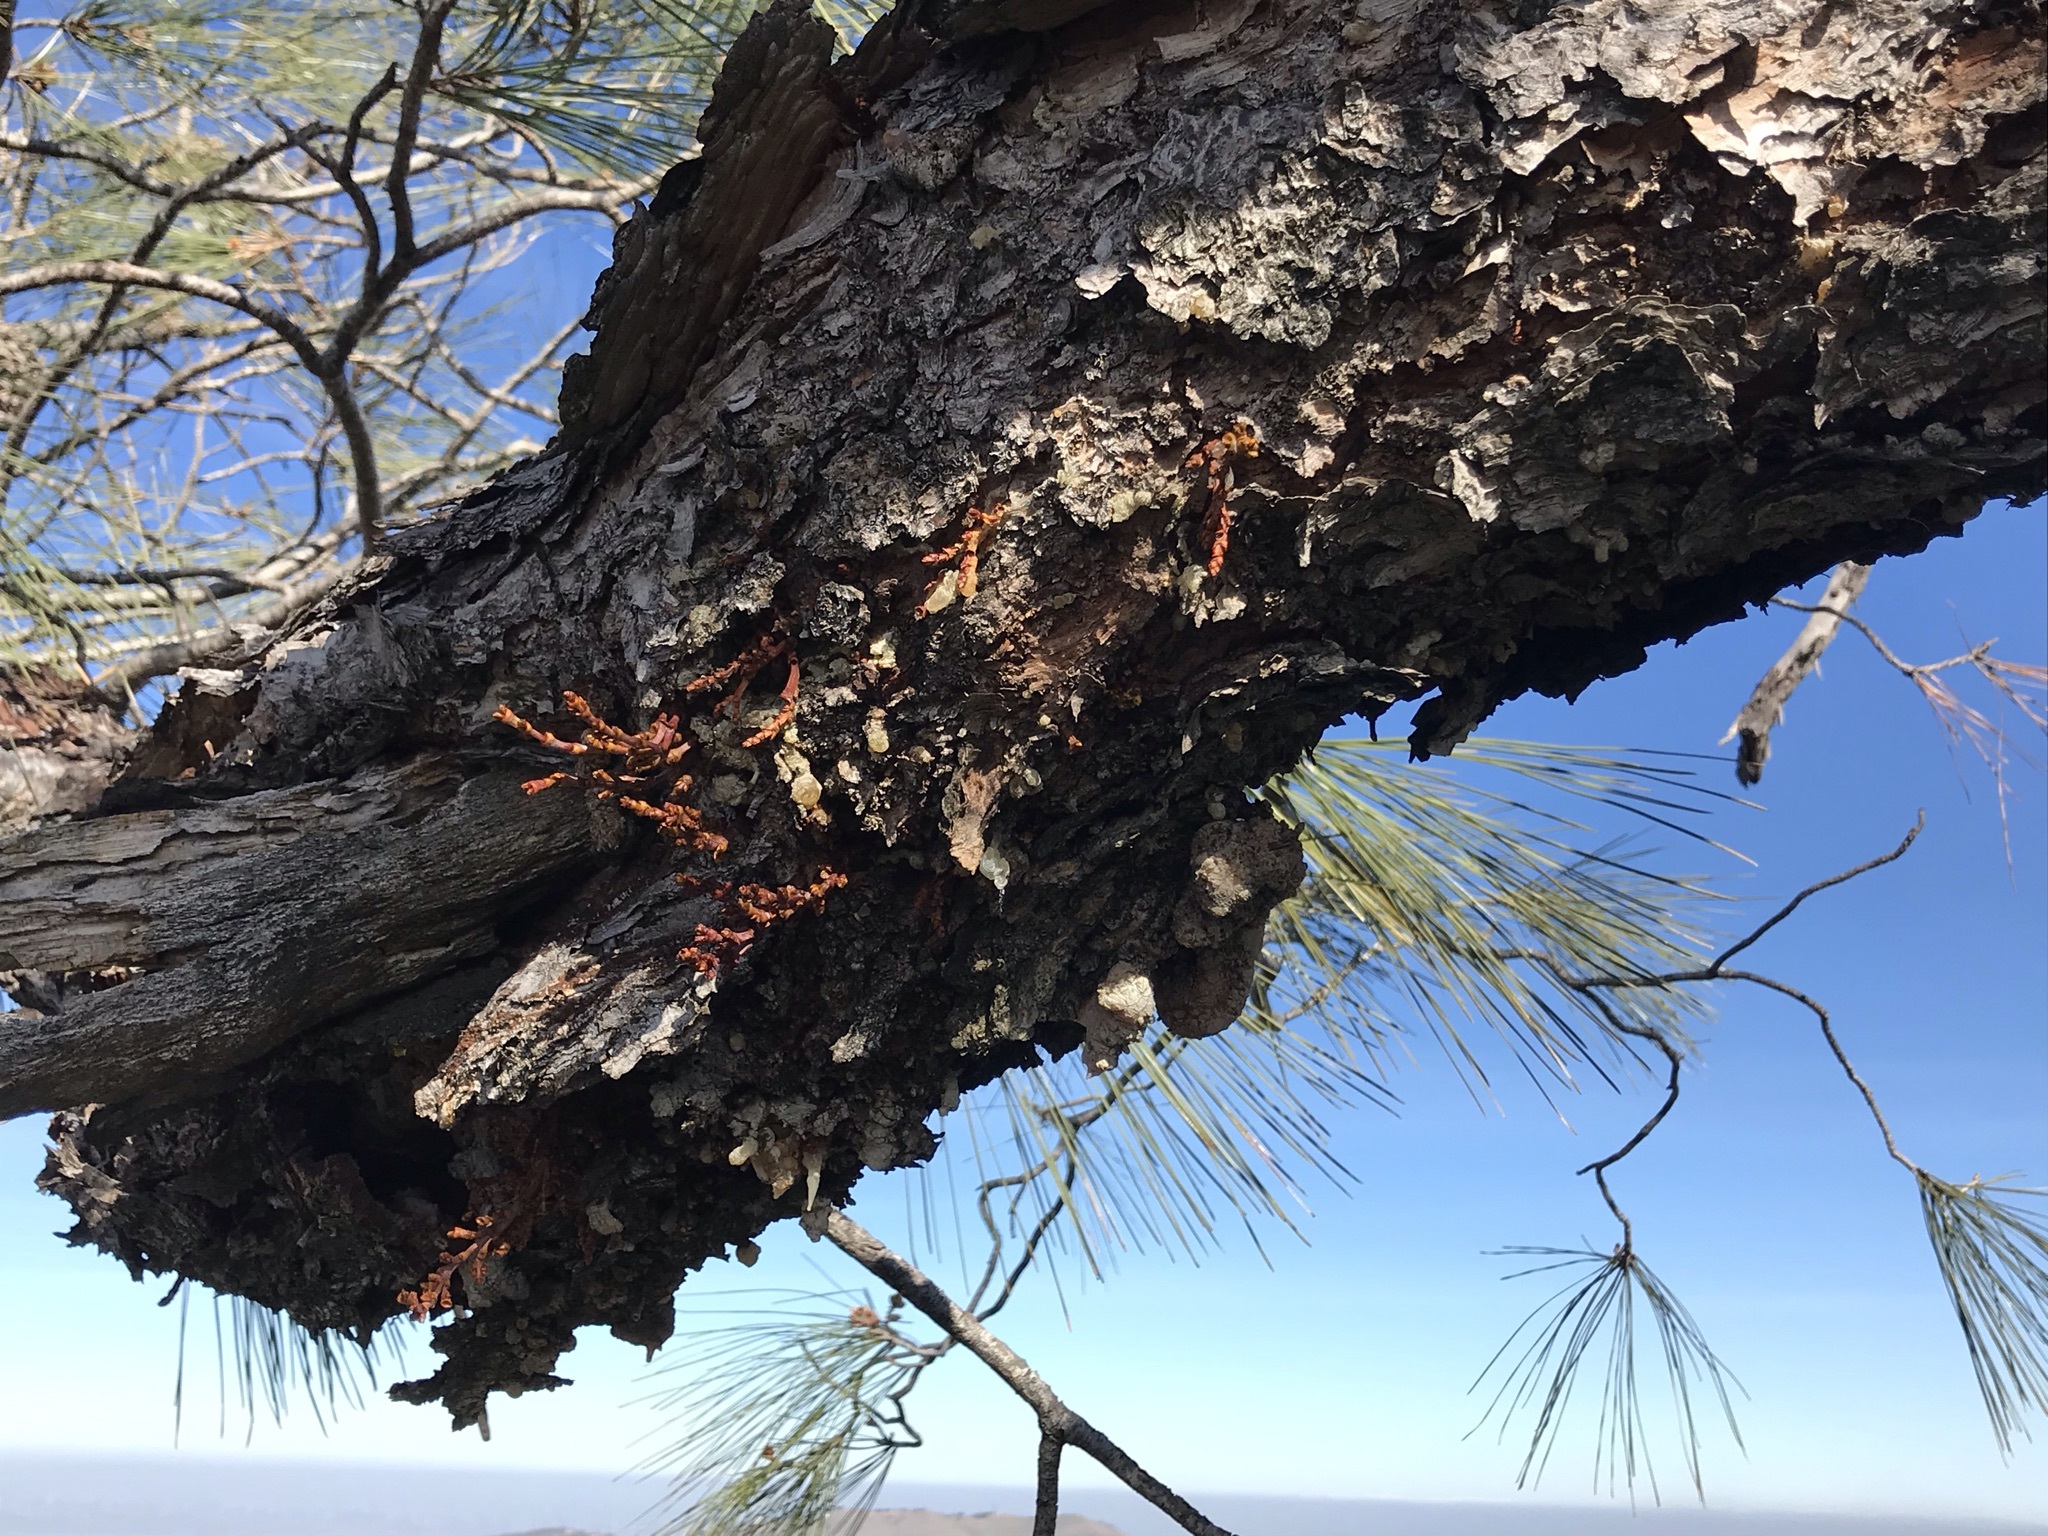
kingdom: Plantae
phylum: Tracheophyta
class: Magnoliopsida
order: Santalales
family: Viscaceae
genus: Arceuthobium
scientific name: Arceuthobium campylopodum
